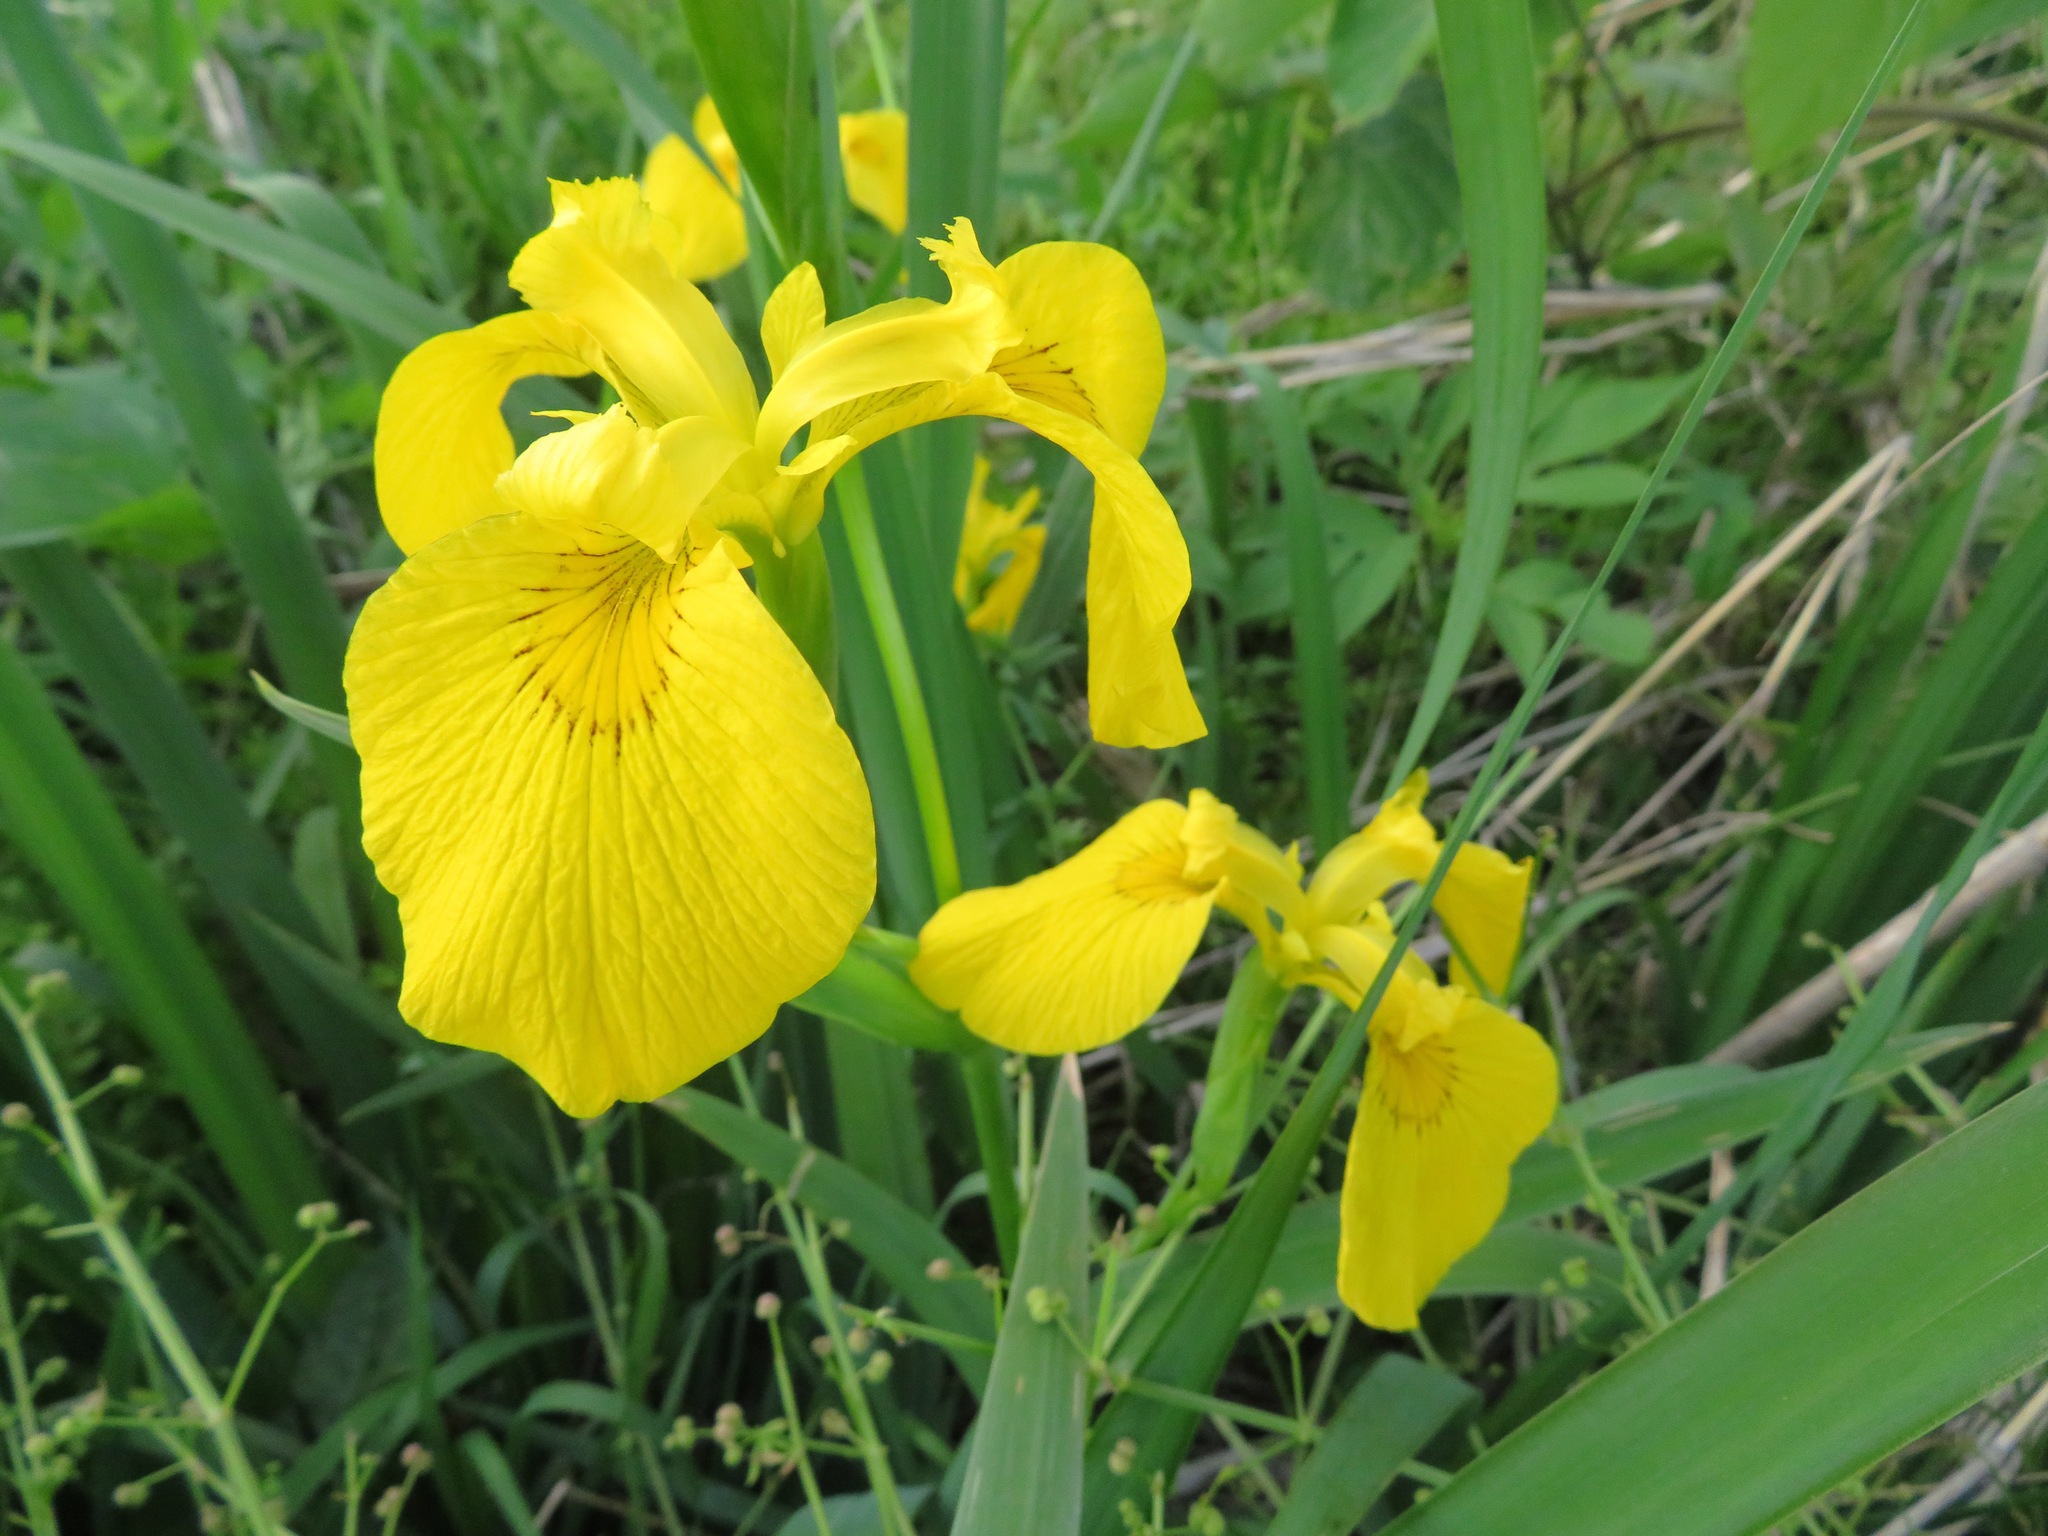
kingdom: Plantae
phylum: Tracheophyta
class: Liliopsida
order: Asparagales
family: Iridaceae
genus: Iris
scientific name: Iris pseudacorus
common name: Yellow flag
